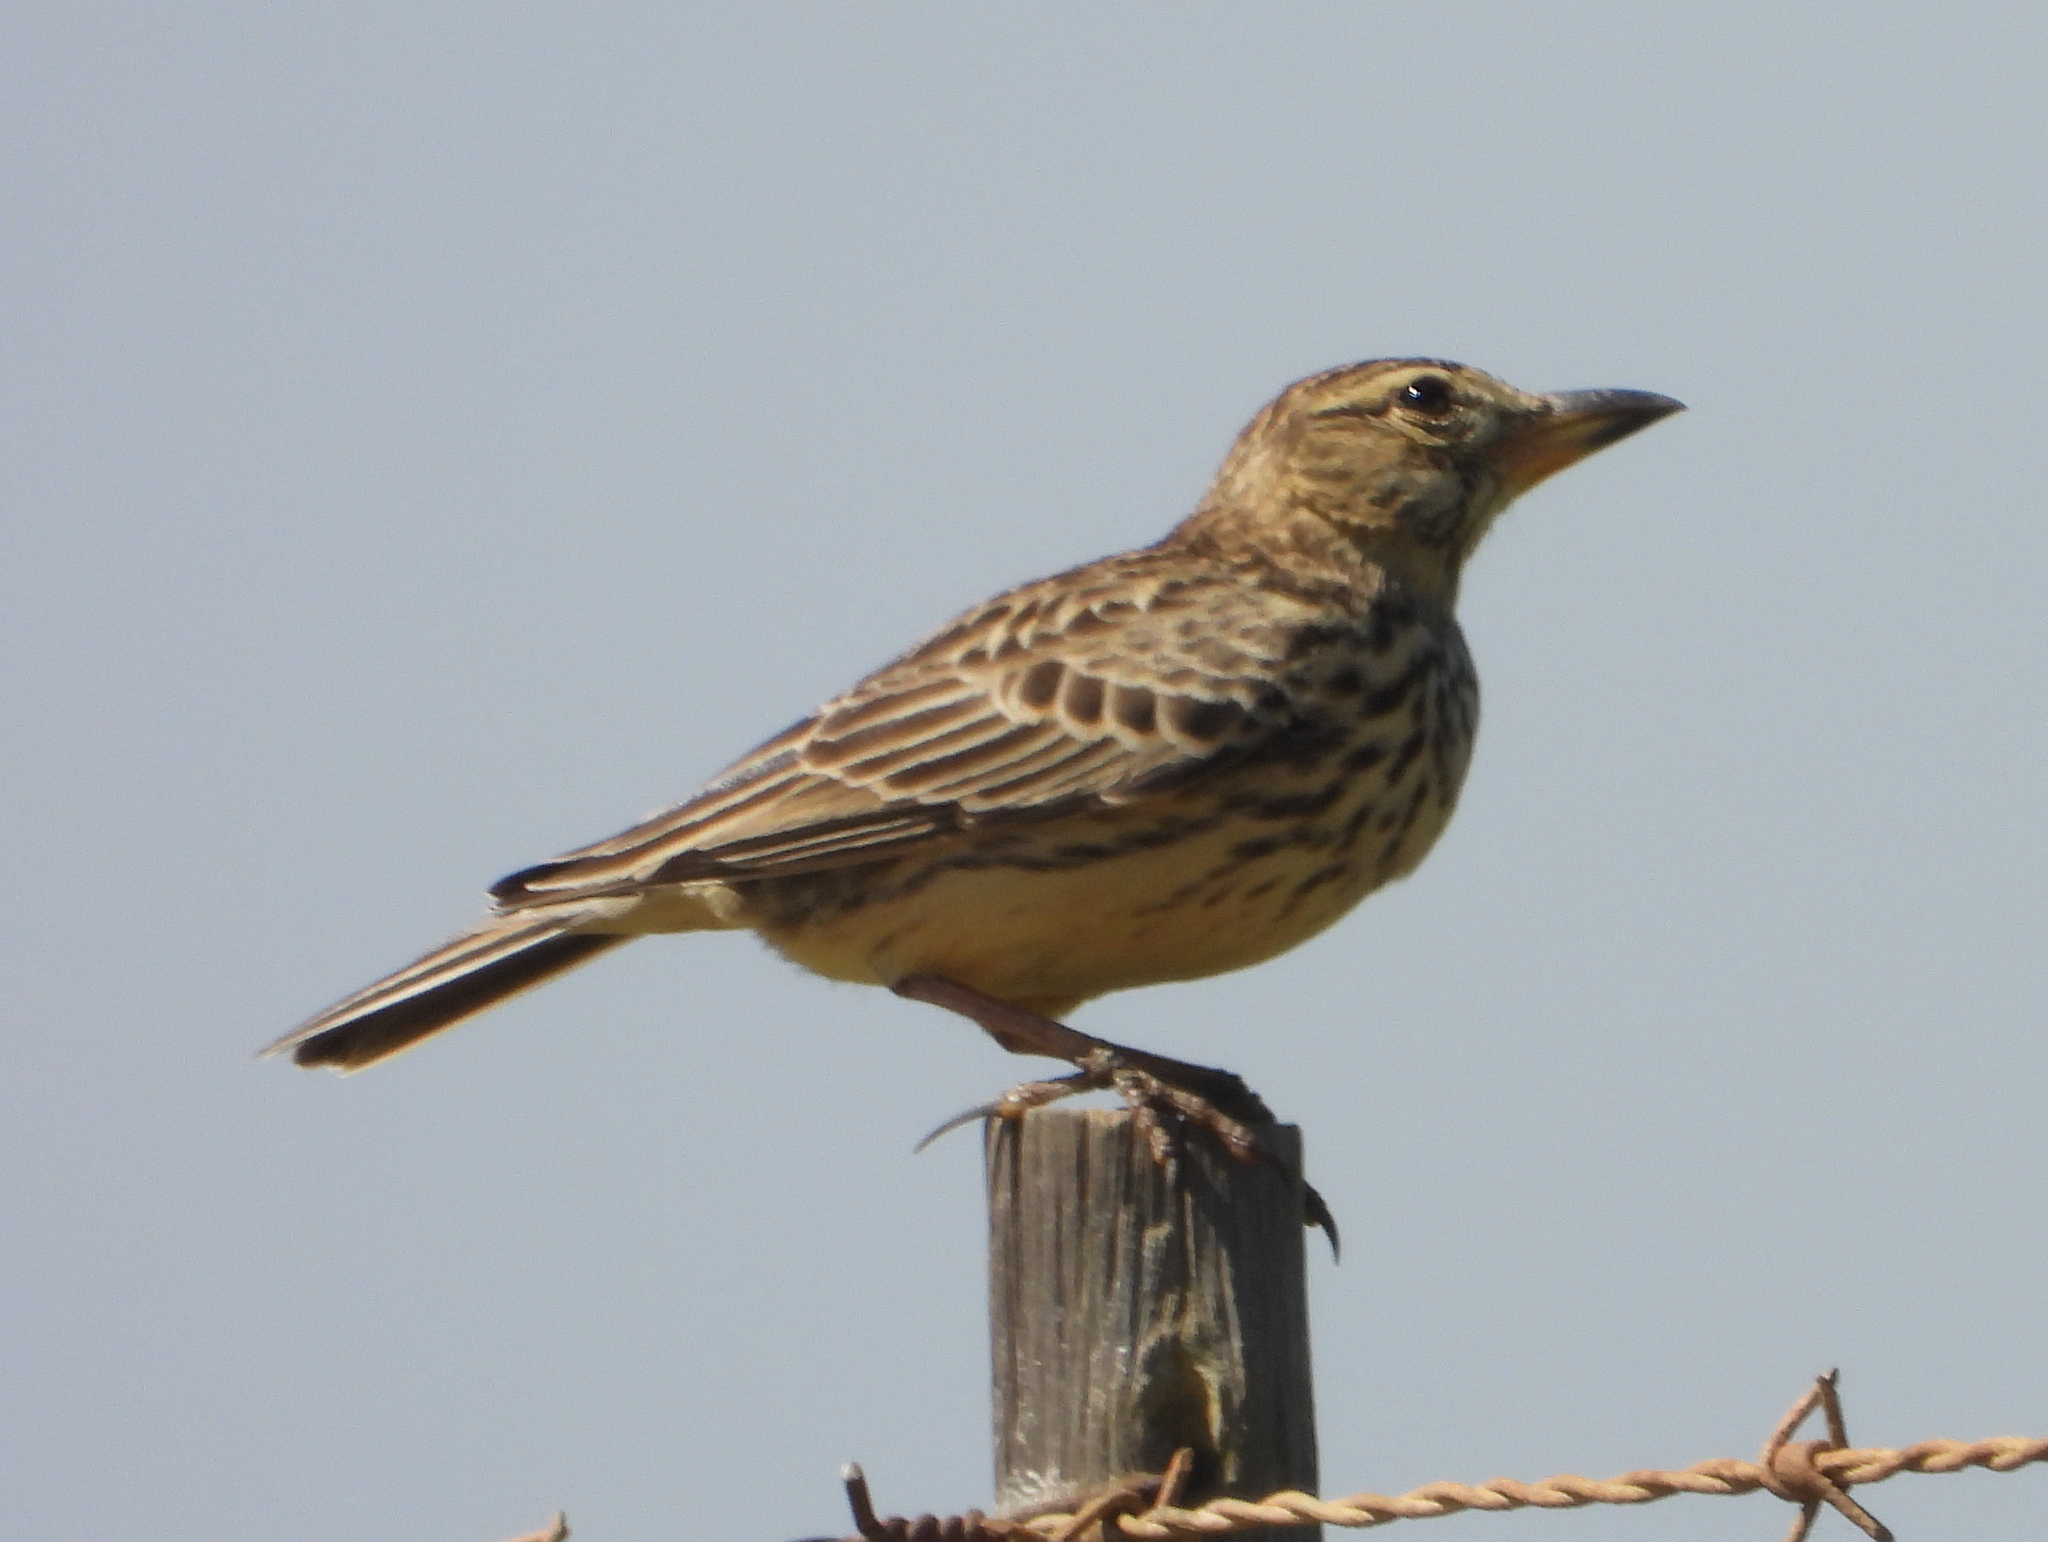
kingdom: Animalia
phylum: Chordata
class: Aves
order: Passeriformes
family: Alaudidae
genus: Galerida
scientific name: Galerida magnirostris
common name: Large-billed lark
